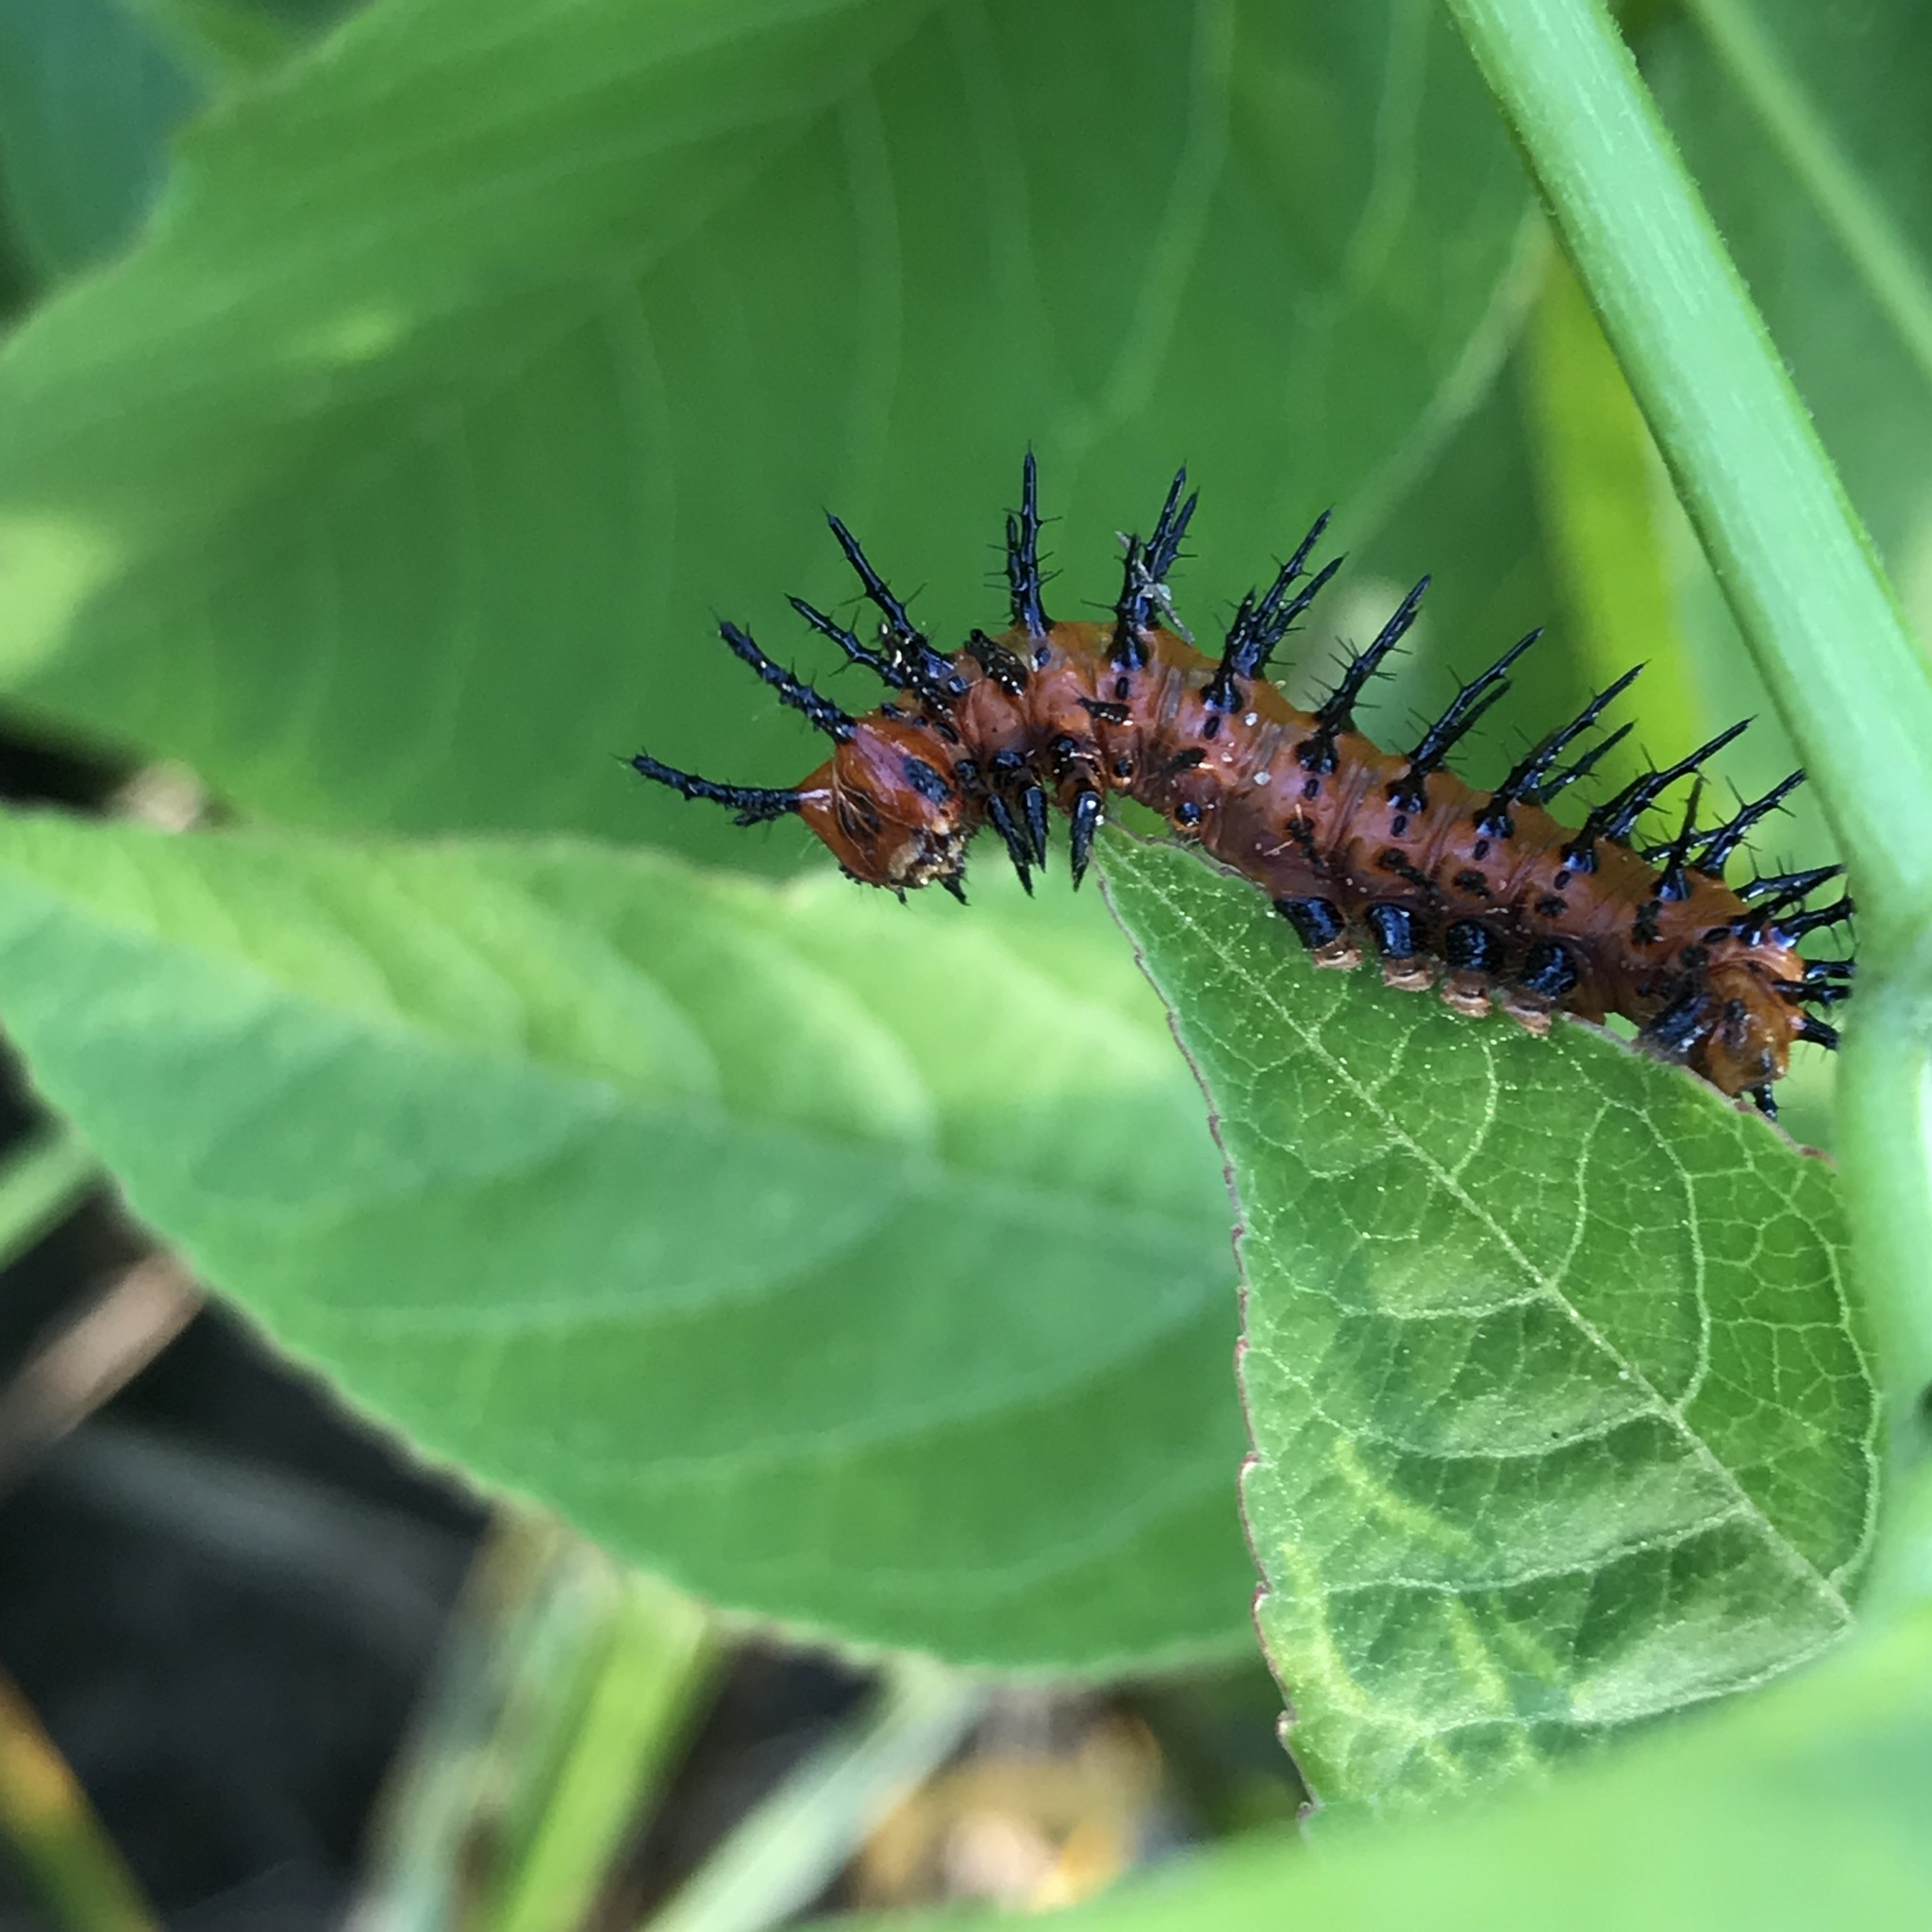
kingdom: Animalia
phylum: Arthropoda
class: Insecta
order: Lepidoptera
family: Nymphalidae
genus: Dione
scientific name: Dione vanillae
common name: Gulf fritillary
